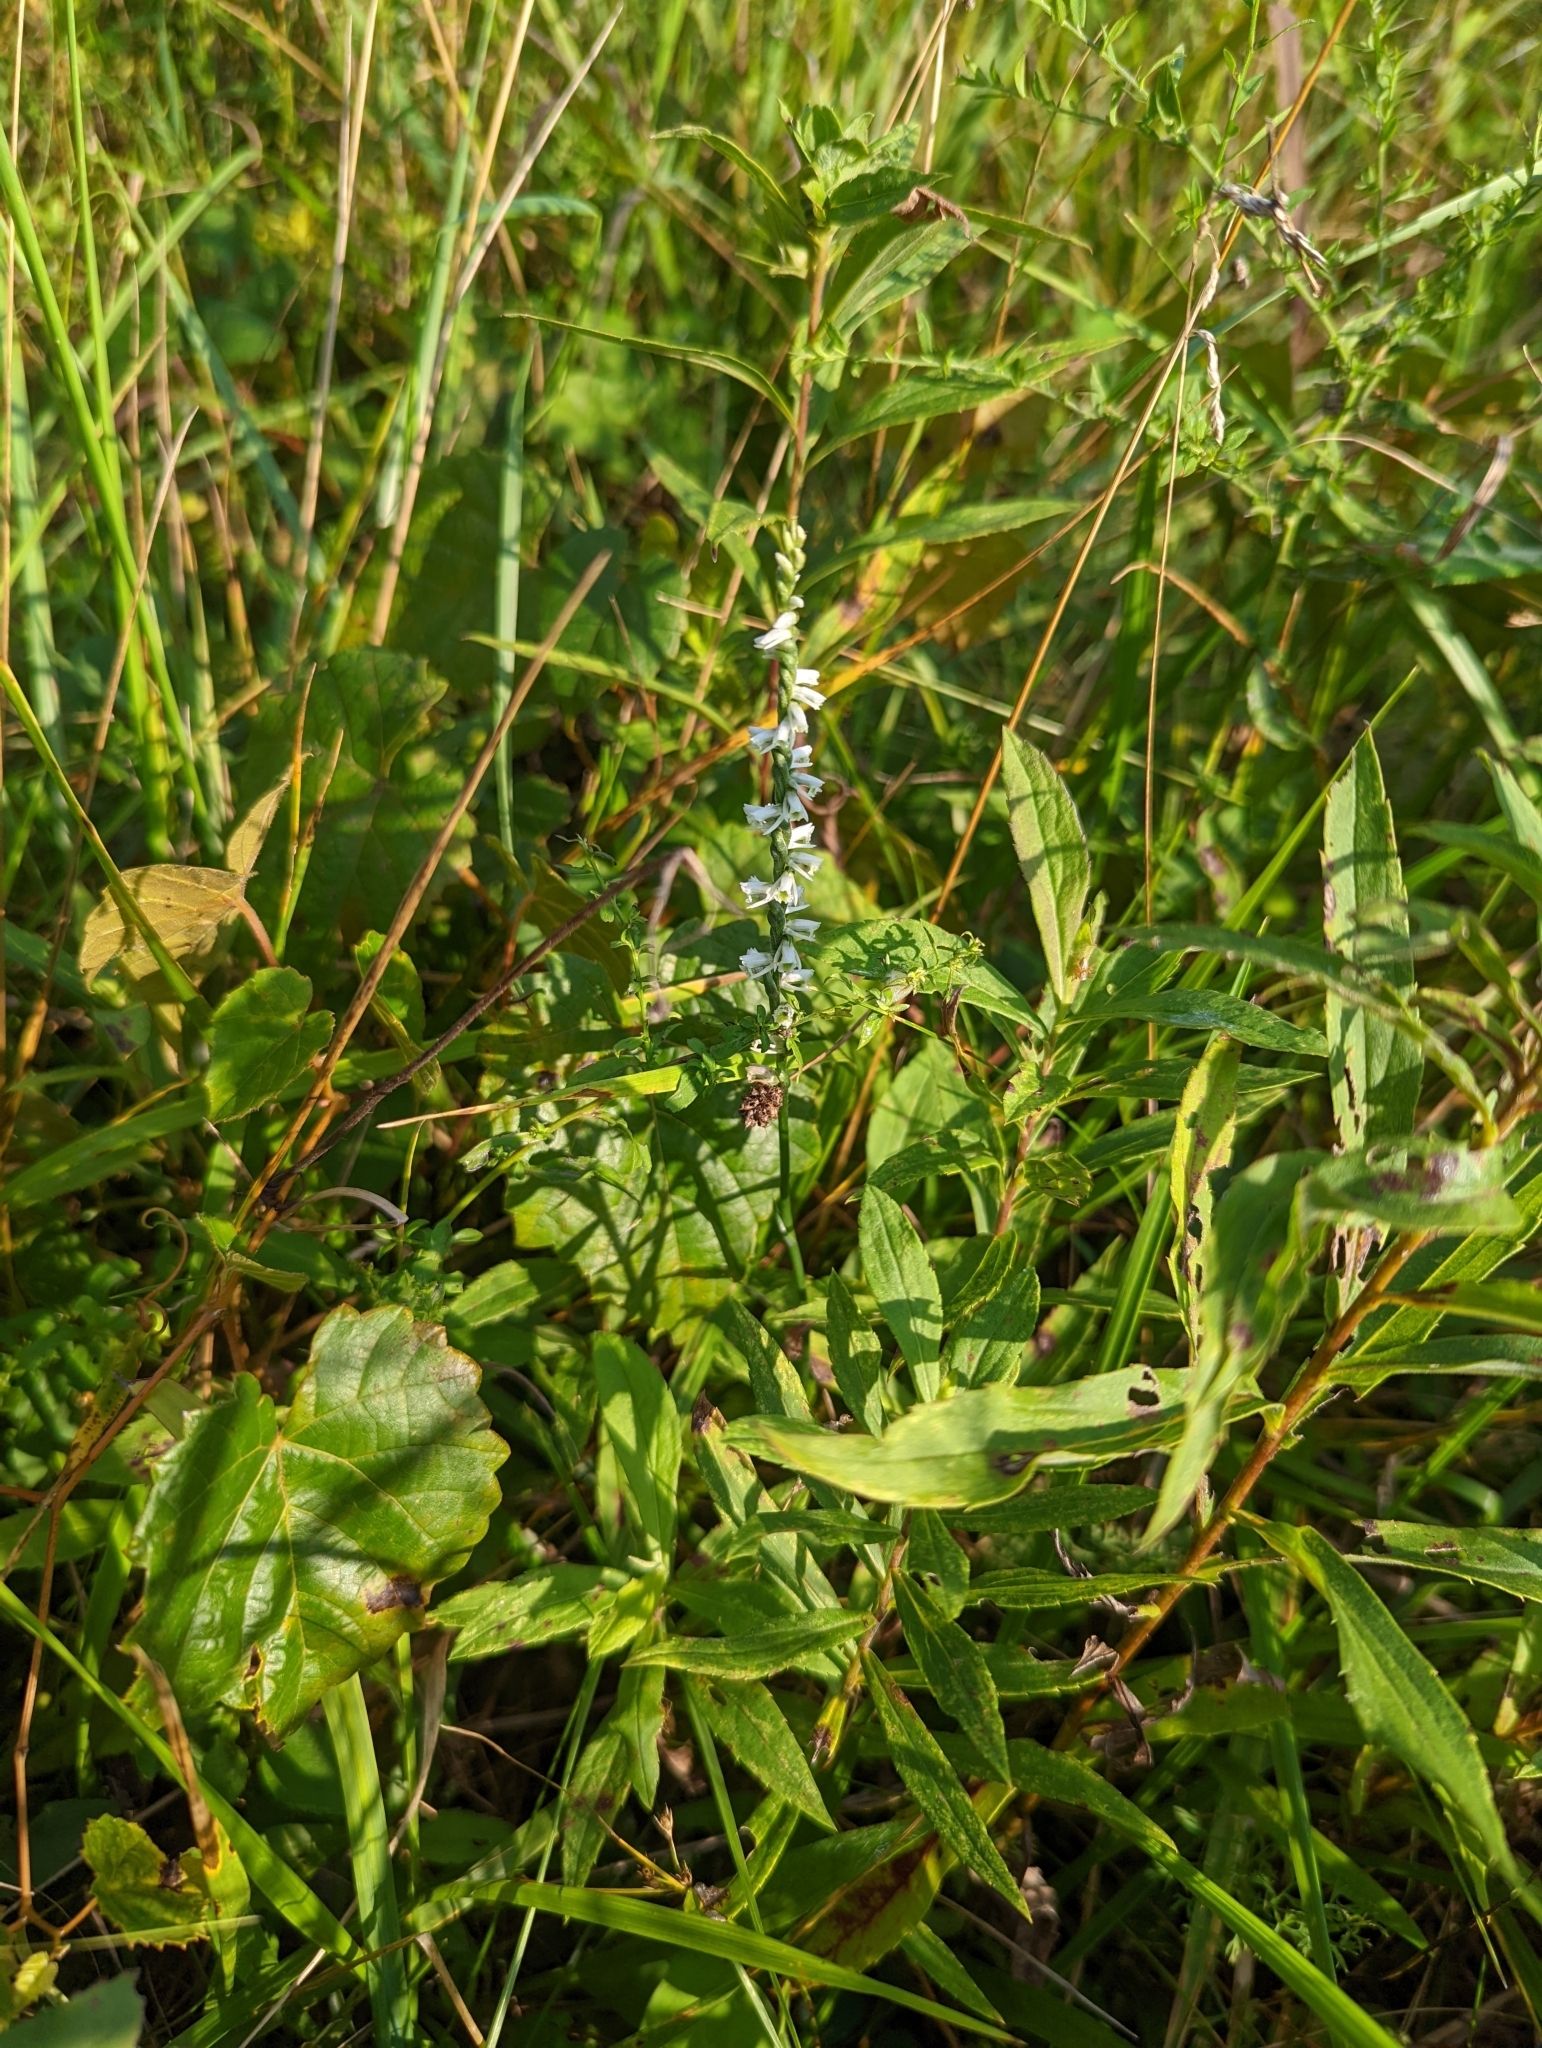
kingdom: Plantae
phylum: Tracheophyta
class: Liliopsida
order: Asparagales
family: Orchidaceae
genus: Spiranthes
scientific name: Spiranthes lacera
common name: Northern slender ladies'-tresses
